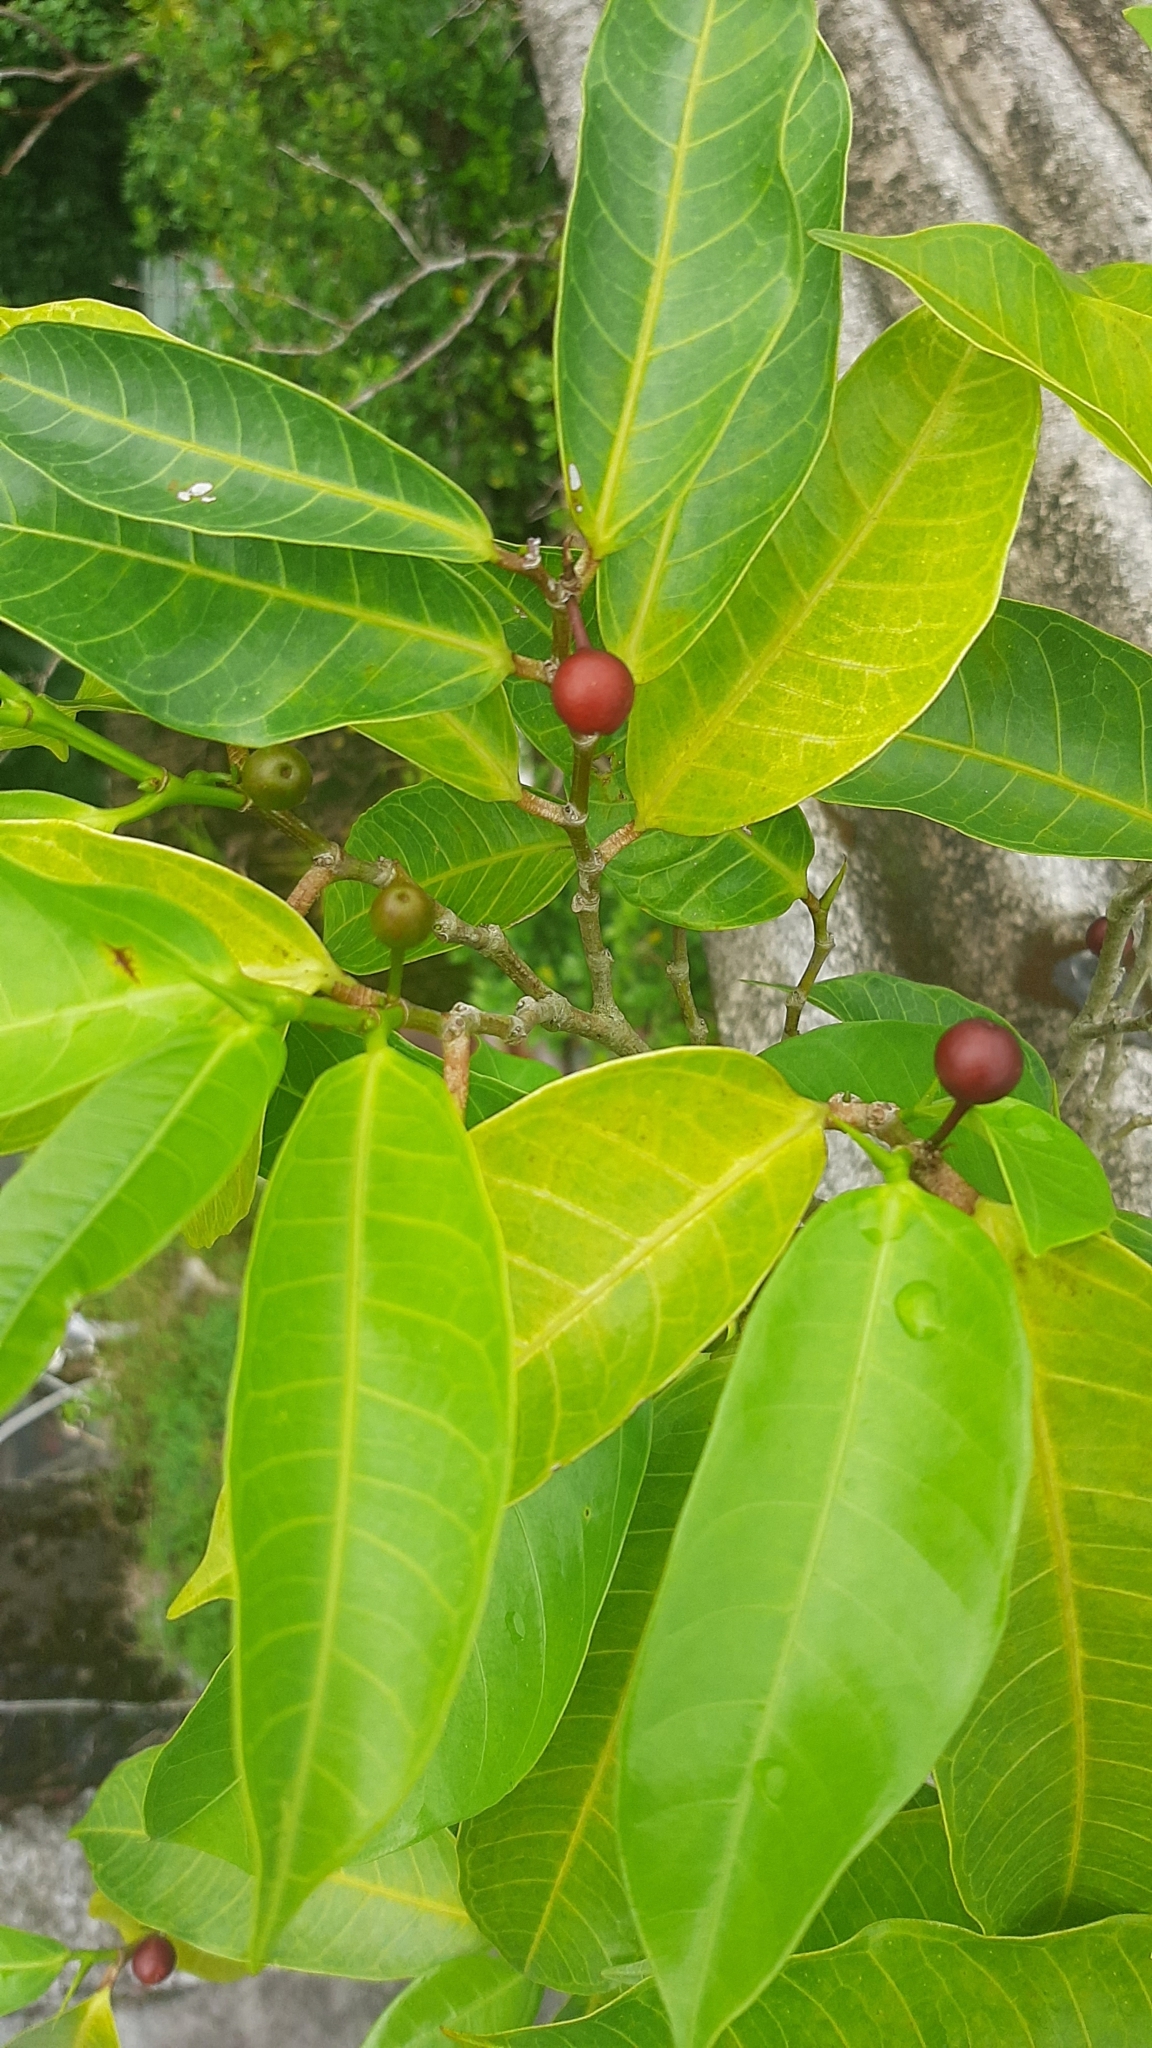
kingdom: Plantae
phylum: Tracheophyta
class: Magnoliopsida
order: Rosales
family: Moraceae
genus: Ficus
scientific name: Ficus virgata
